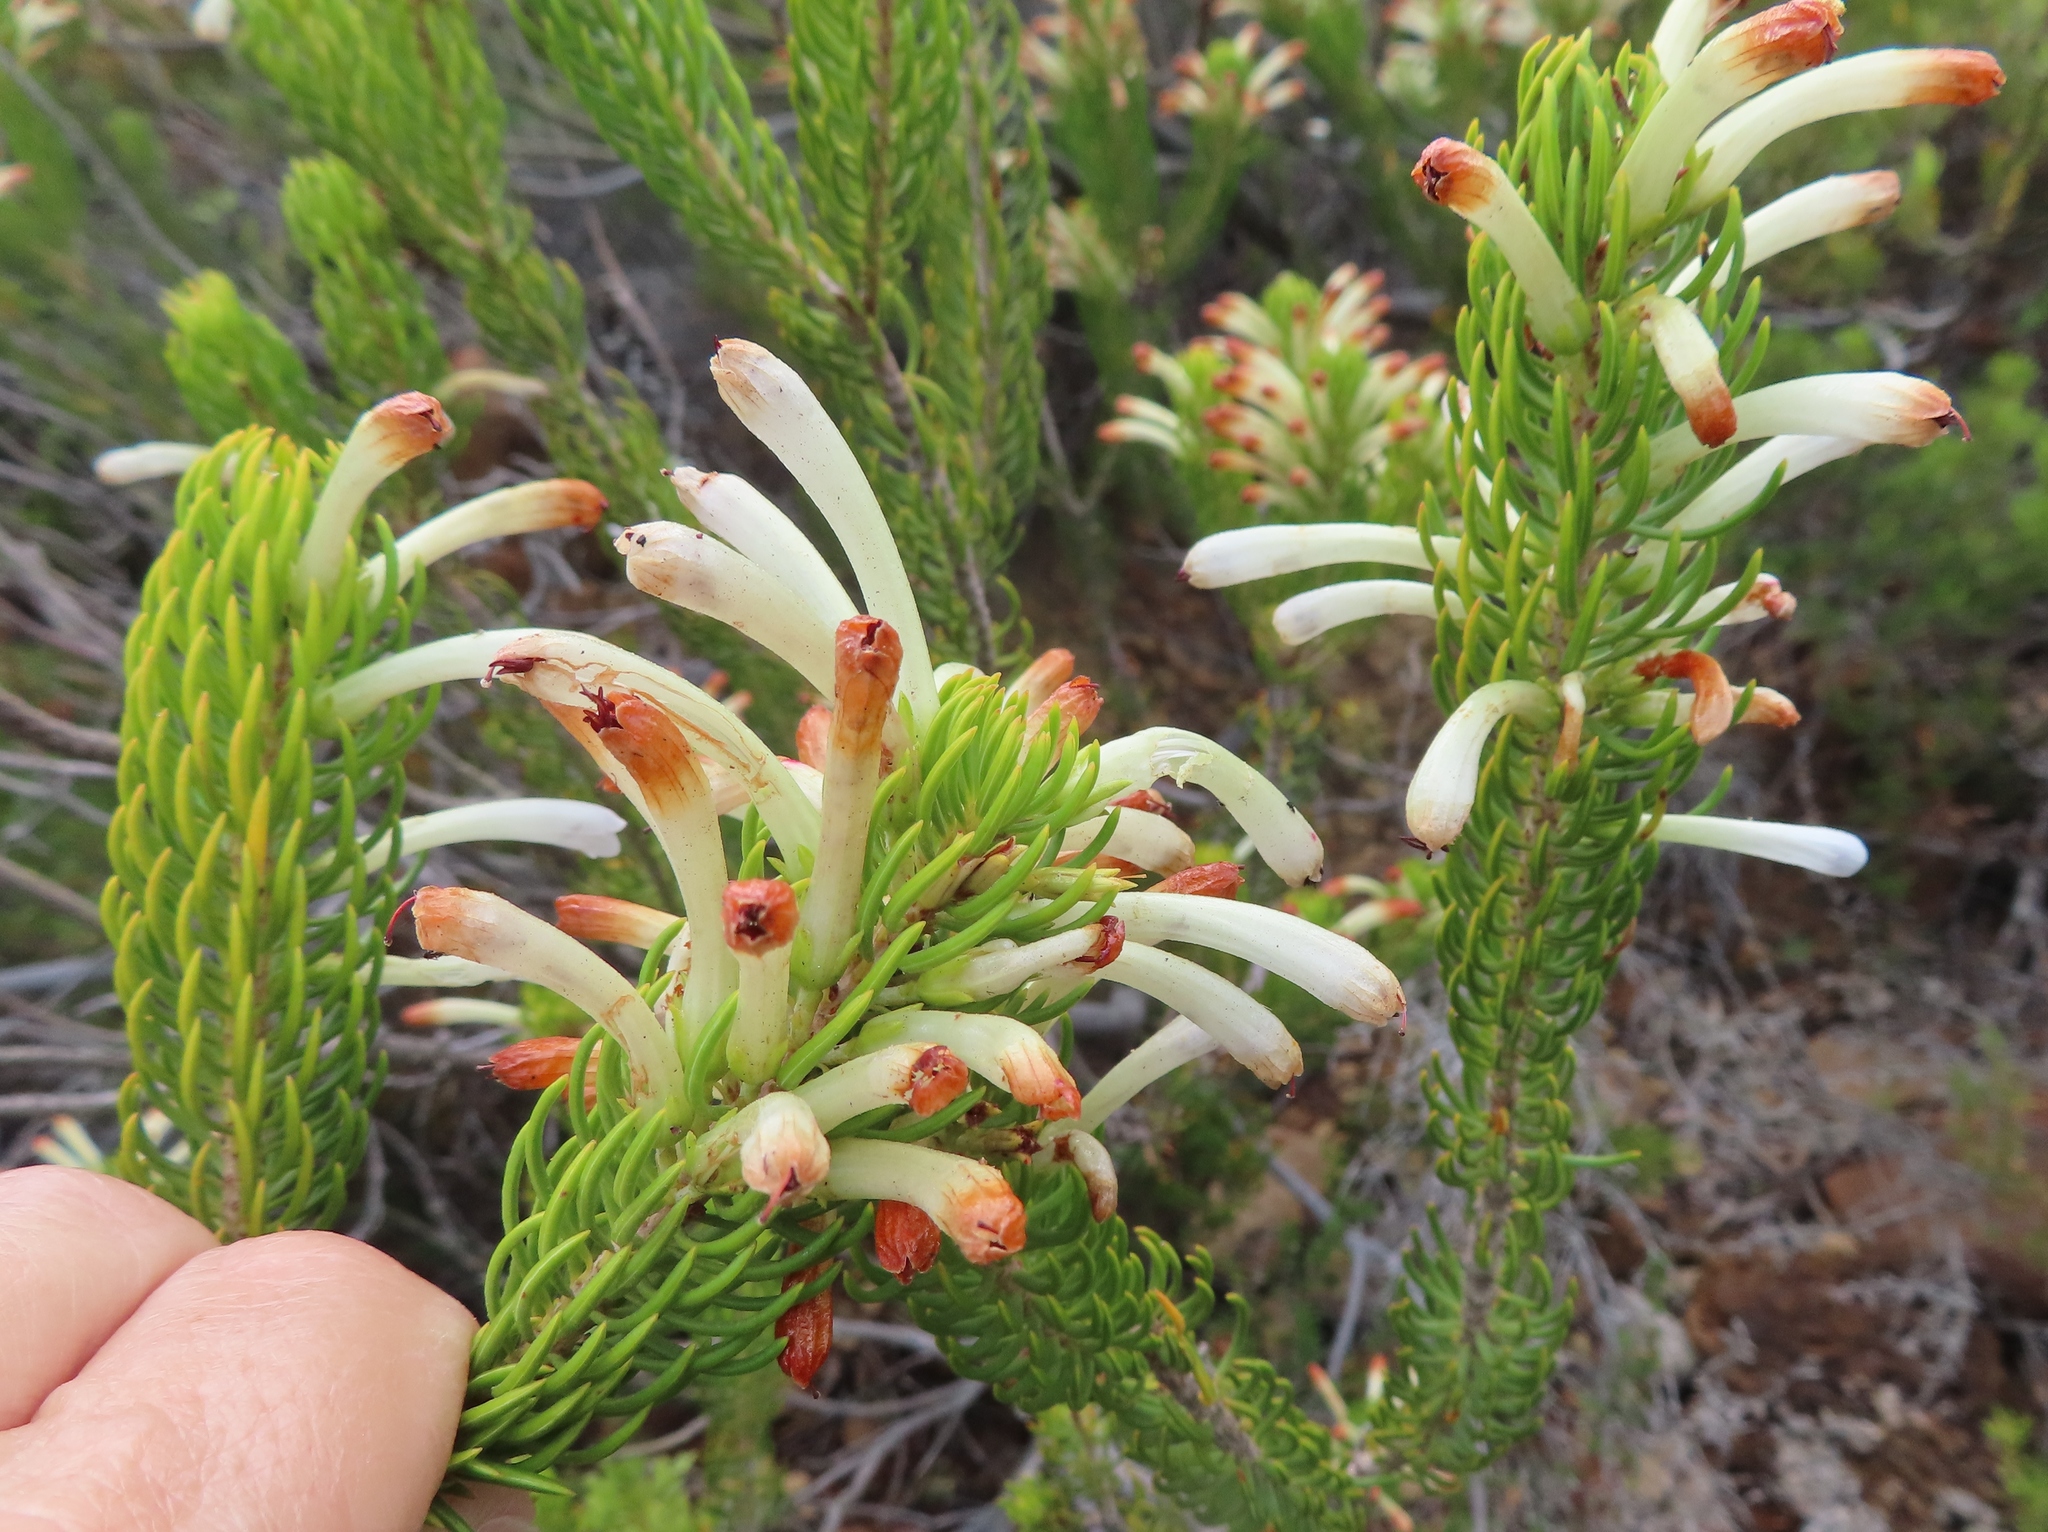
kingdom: Plantae
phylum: Tracheophyta
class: Magnoliopsida
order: Ericales
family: Ericaceae
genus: Erica
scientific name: Erica thomae
